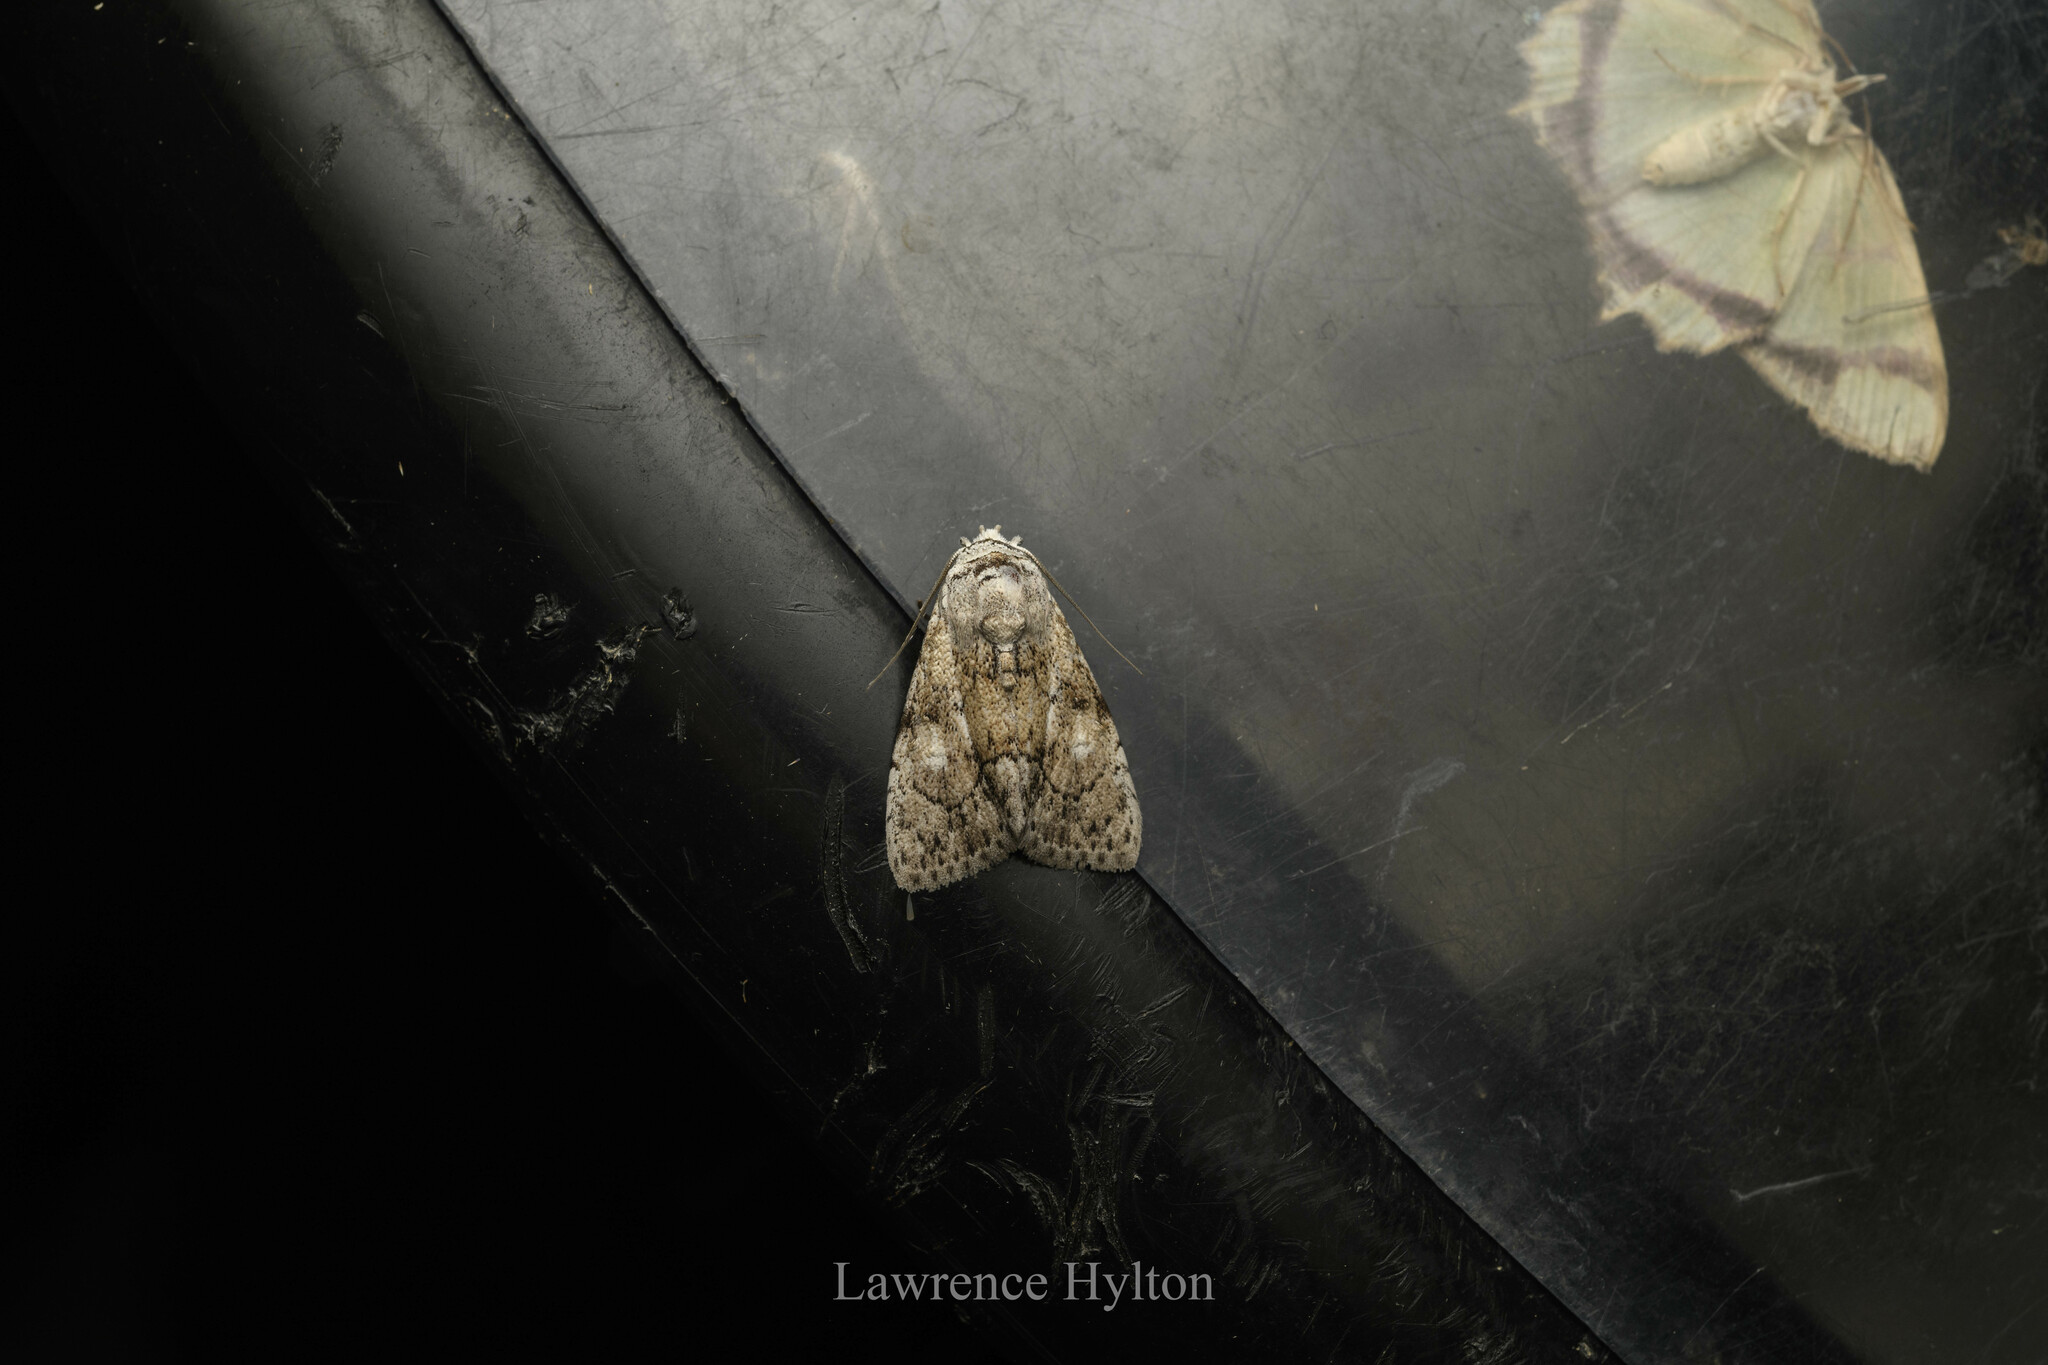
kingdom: Animalia
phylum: Arthropoda
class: Insecta
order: Lepidoptera
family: Nolidae
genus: Barasa
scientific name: Barasa acronyctoides
